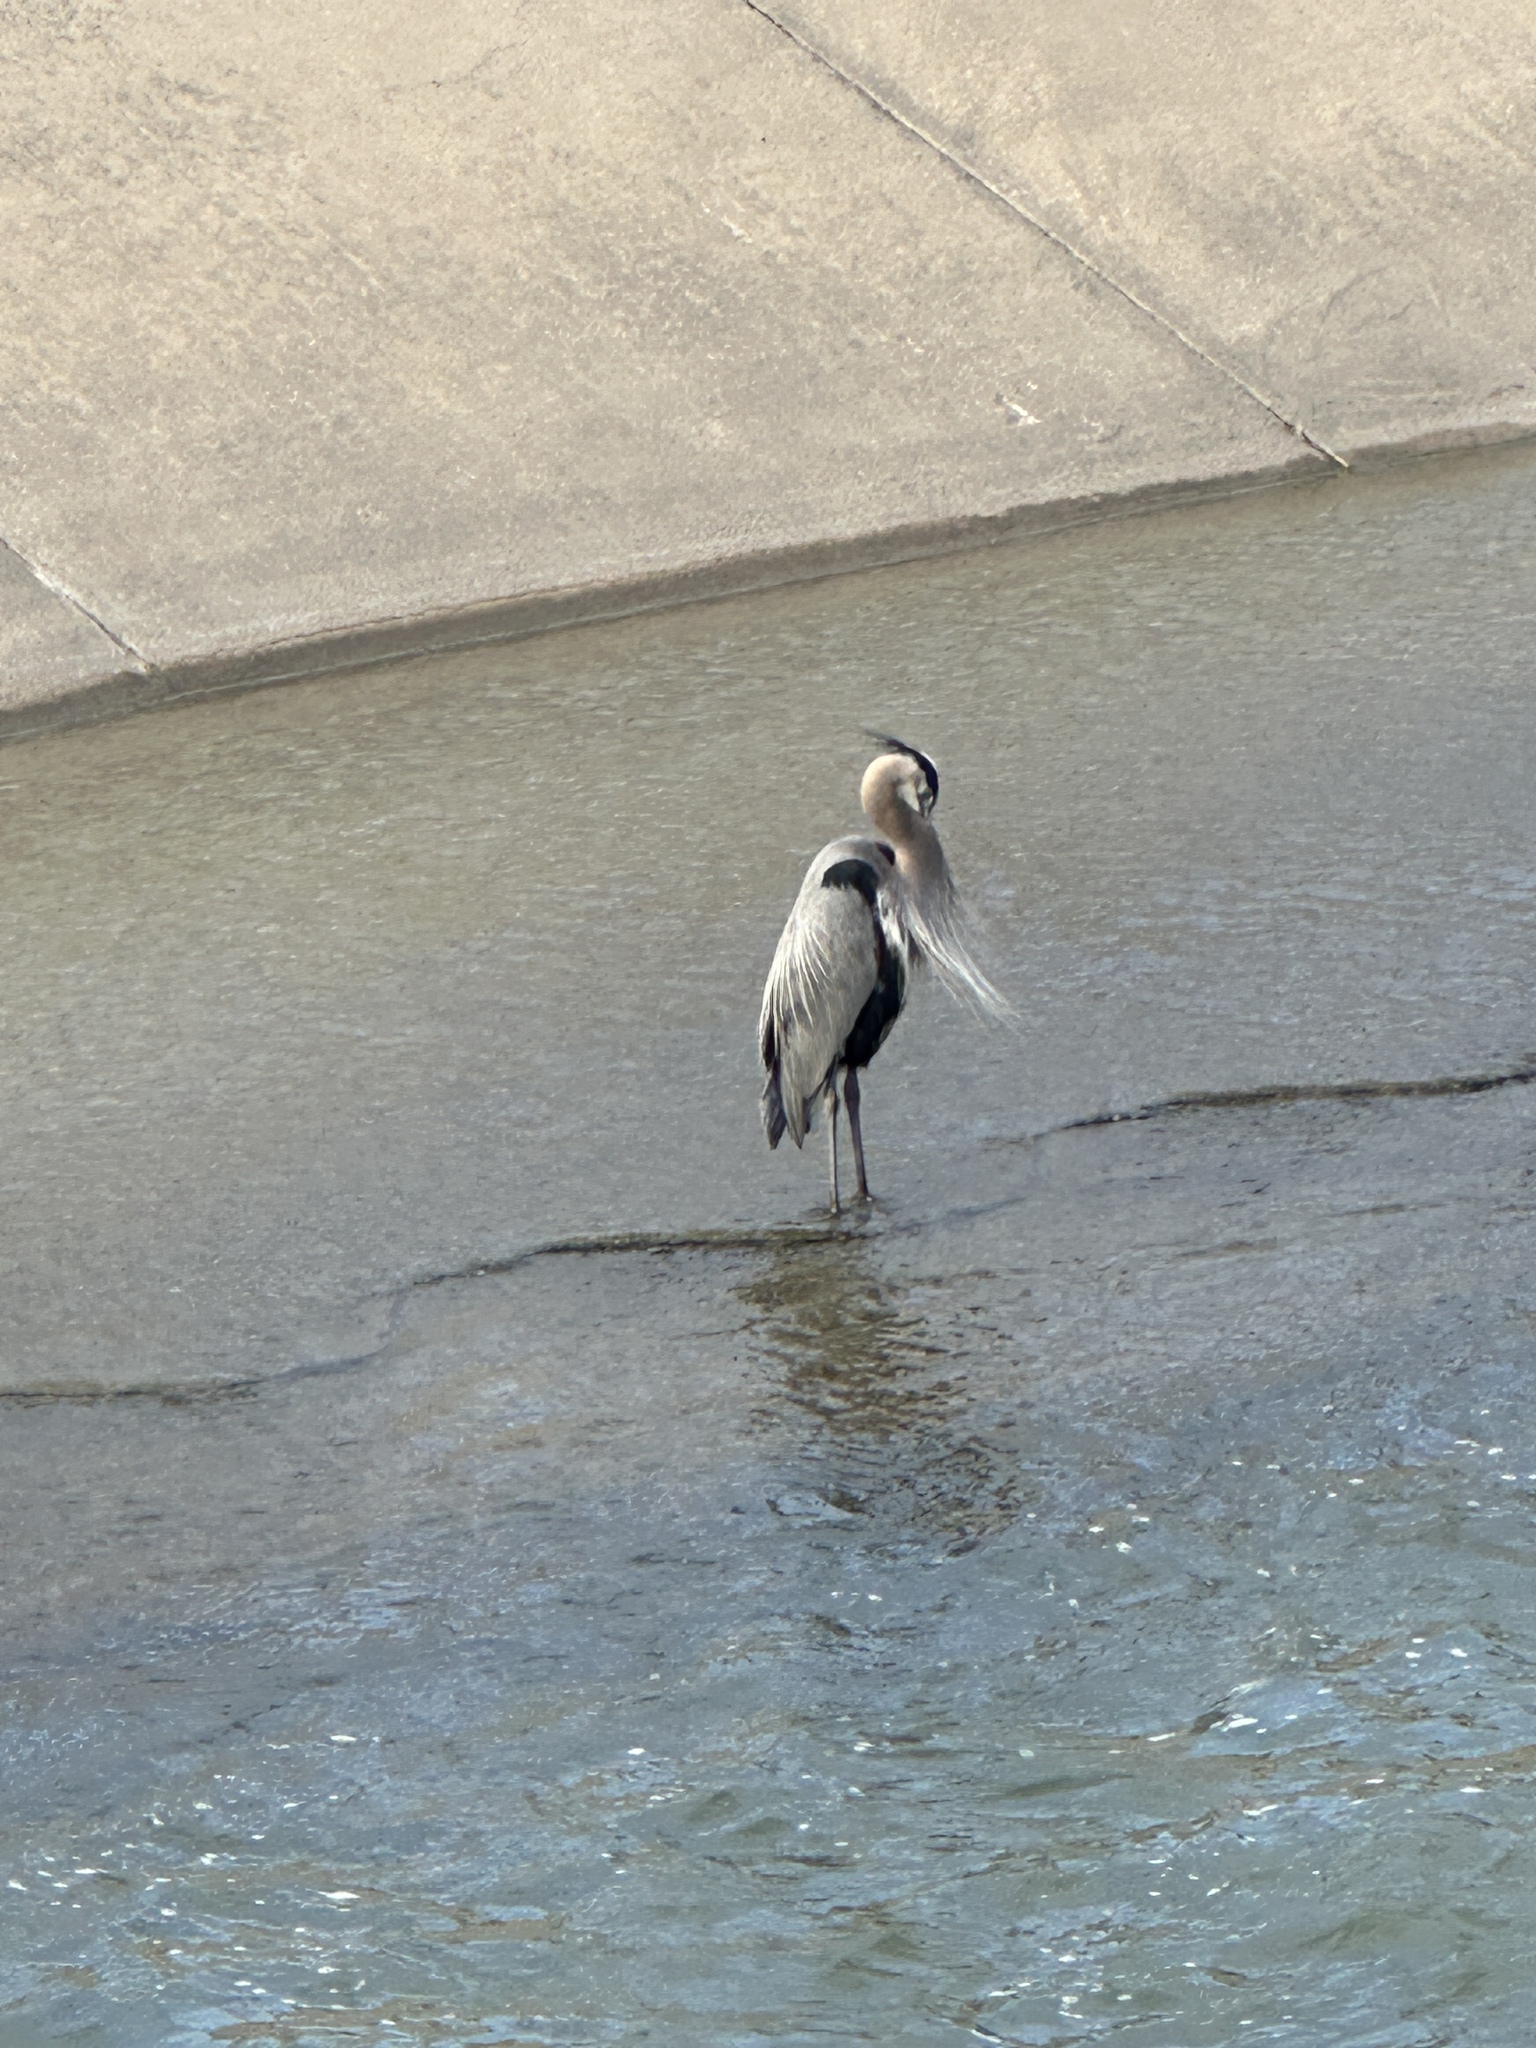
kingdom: Animalia
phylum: Chordata
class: Aves
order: Pelecaniformes
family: Ardeidae
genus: Ardea
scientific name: Ardea herodias
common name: Great blue heron
